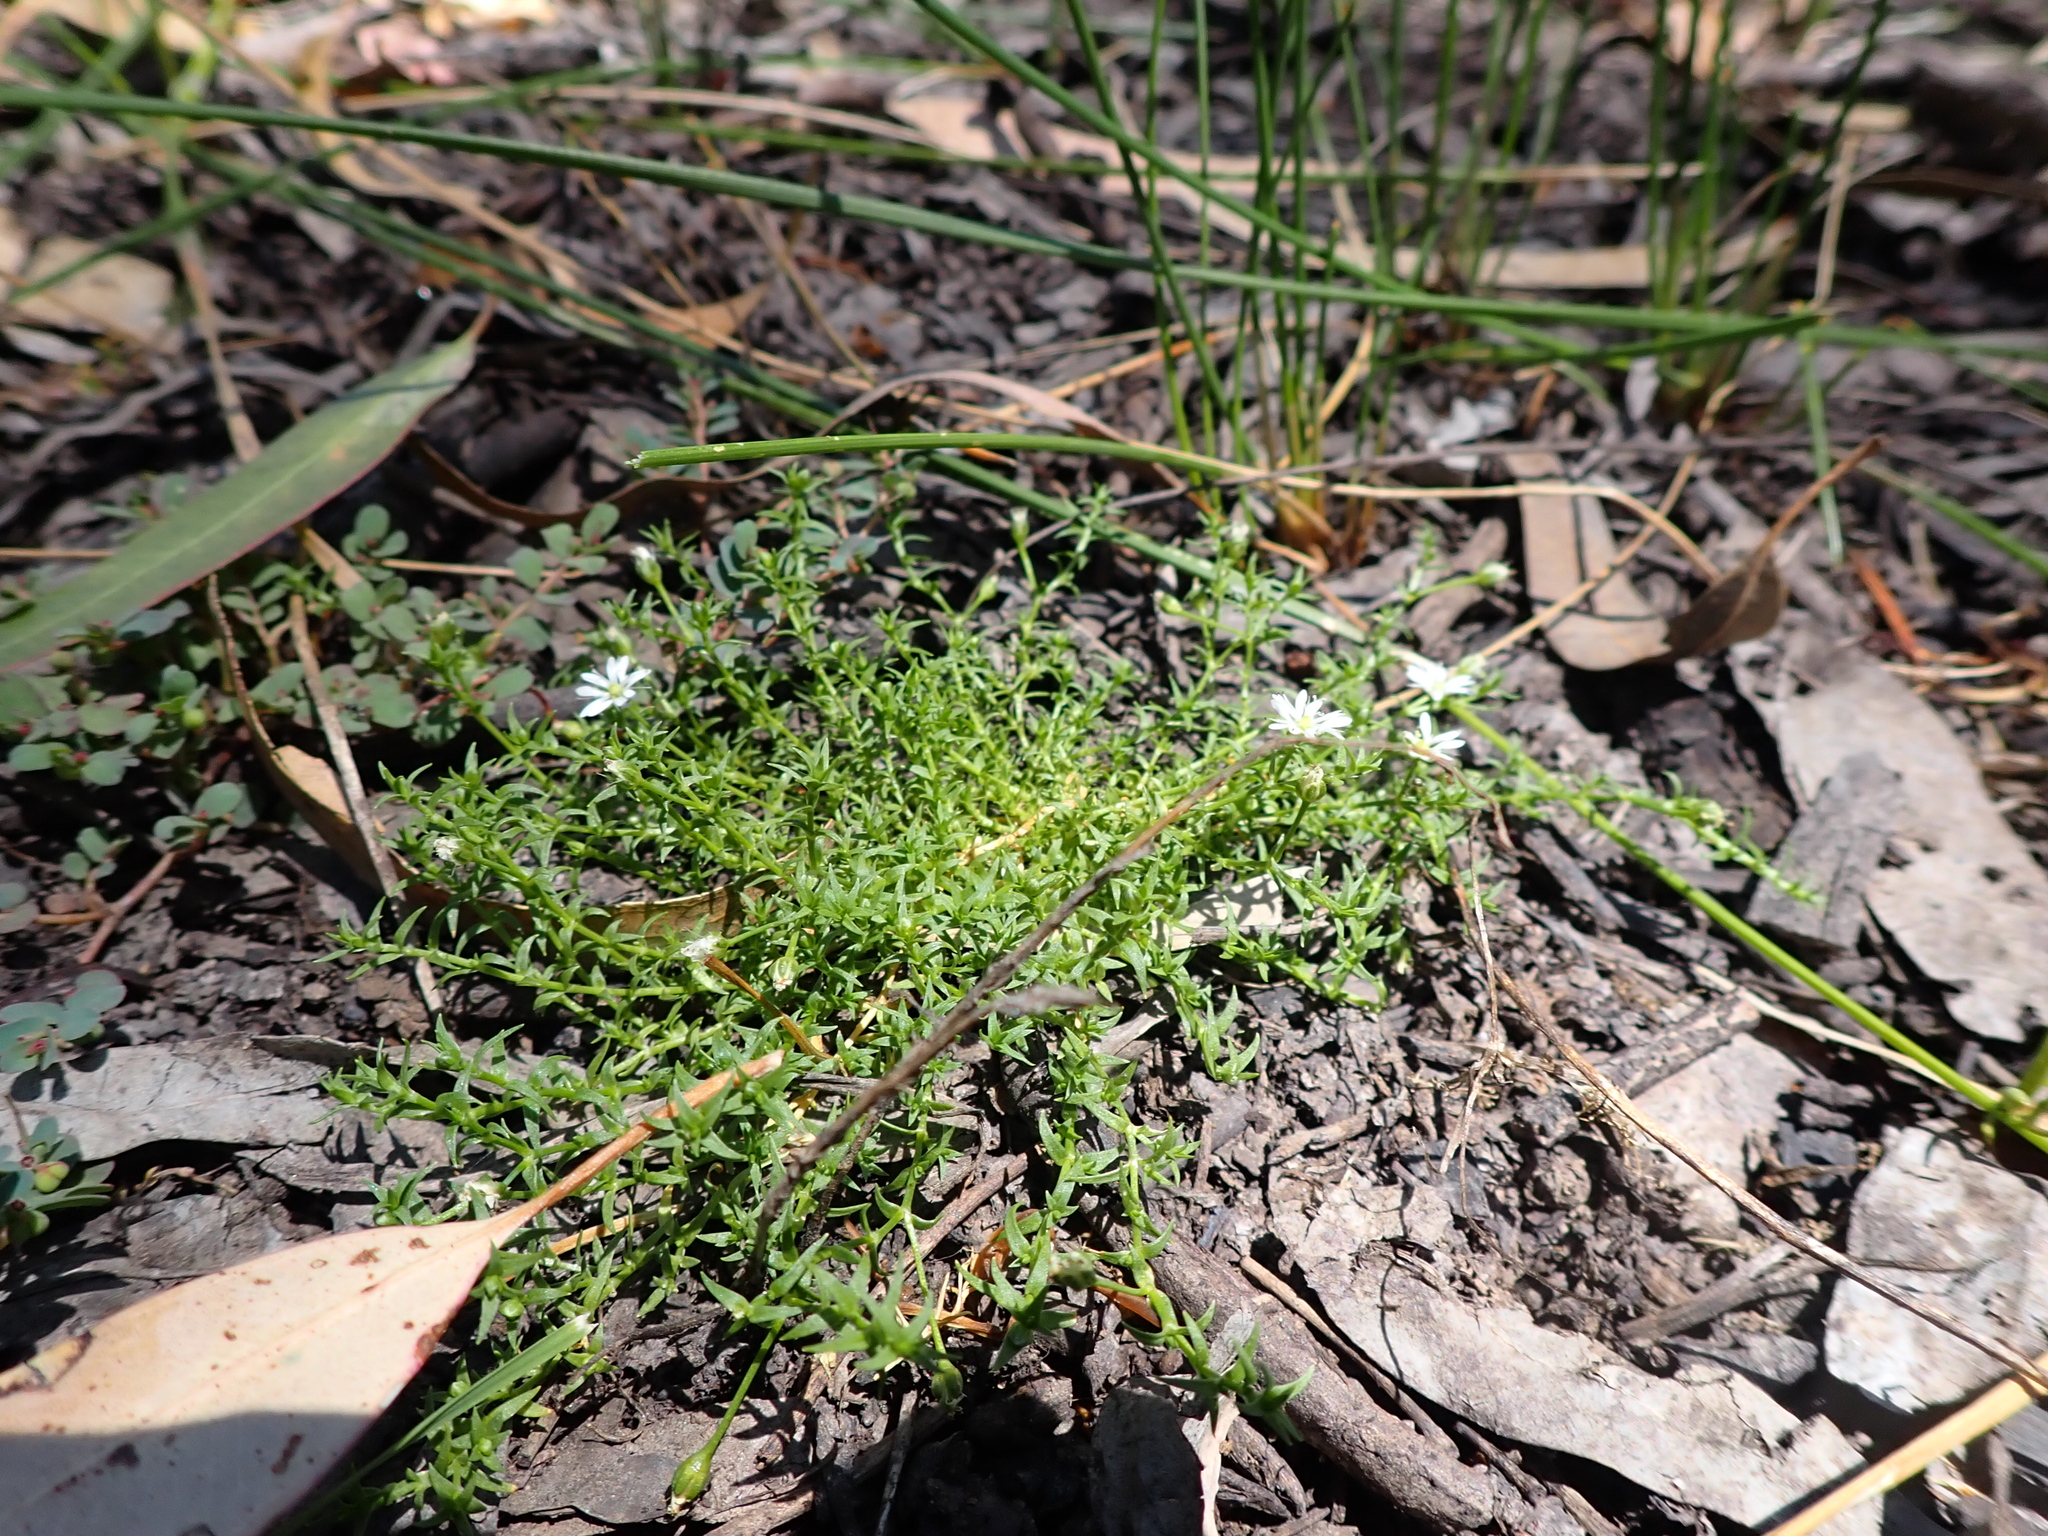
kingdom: Plantae
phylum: Tracheophyta
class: Magnoliopsida
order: Caryophyllales
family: Caryophyllaceae
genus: Stellaria
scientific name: Stellaria angustifolia
